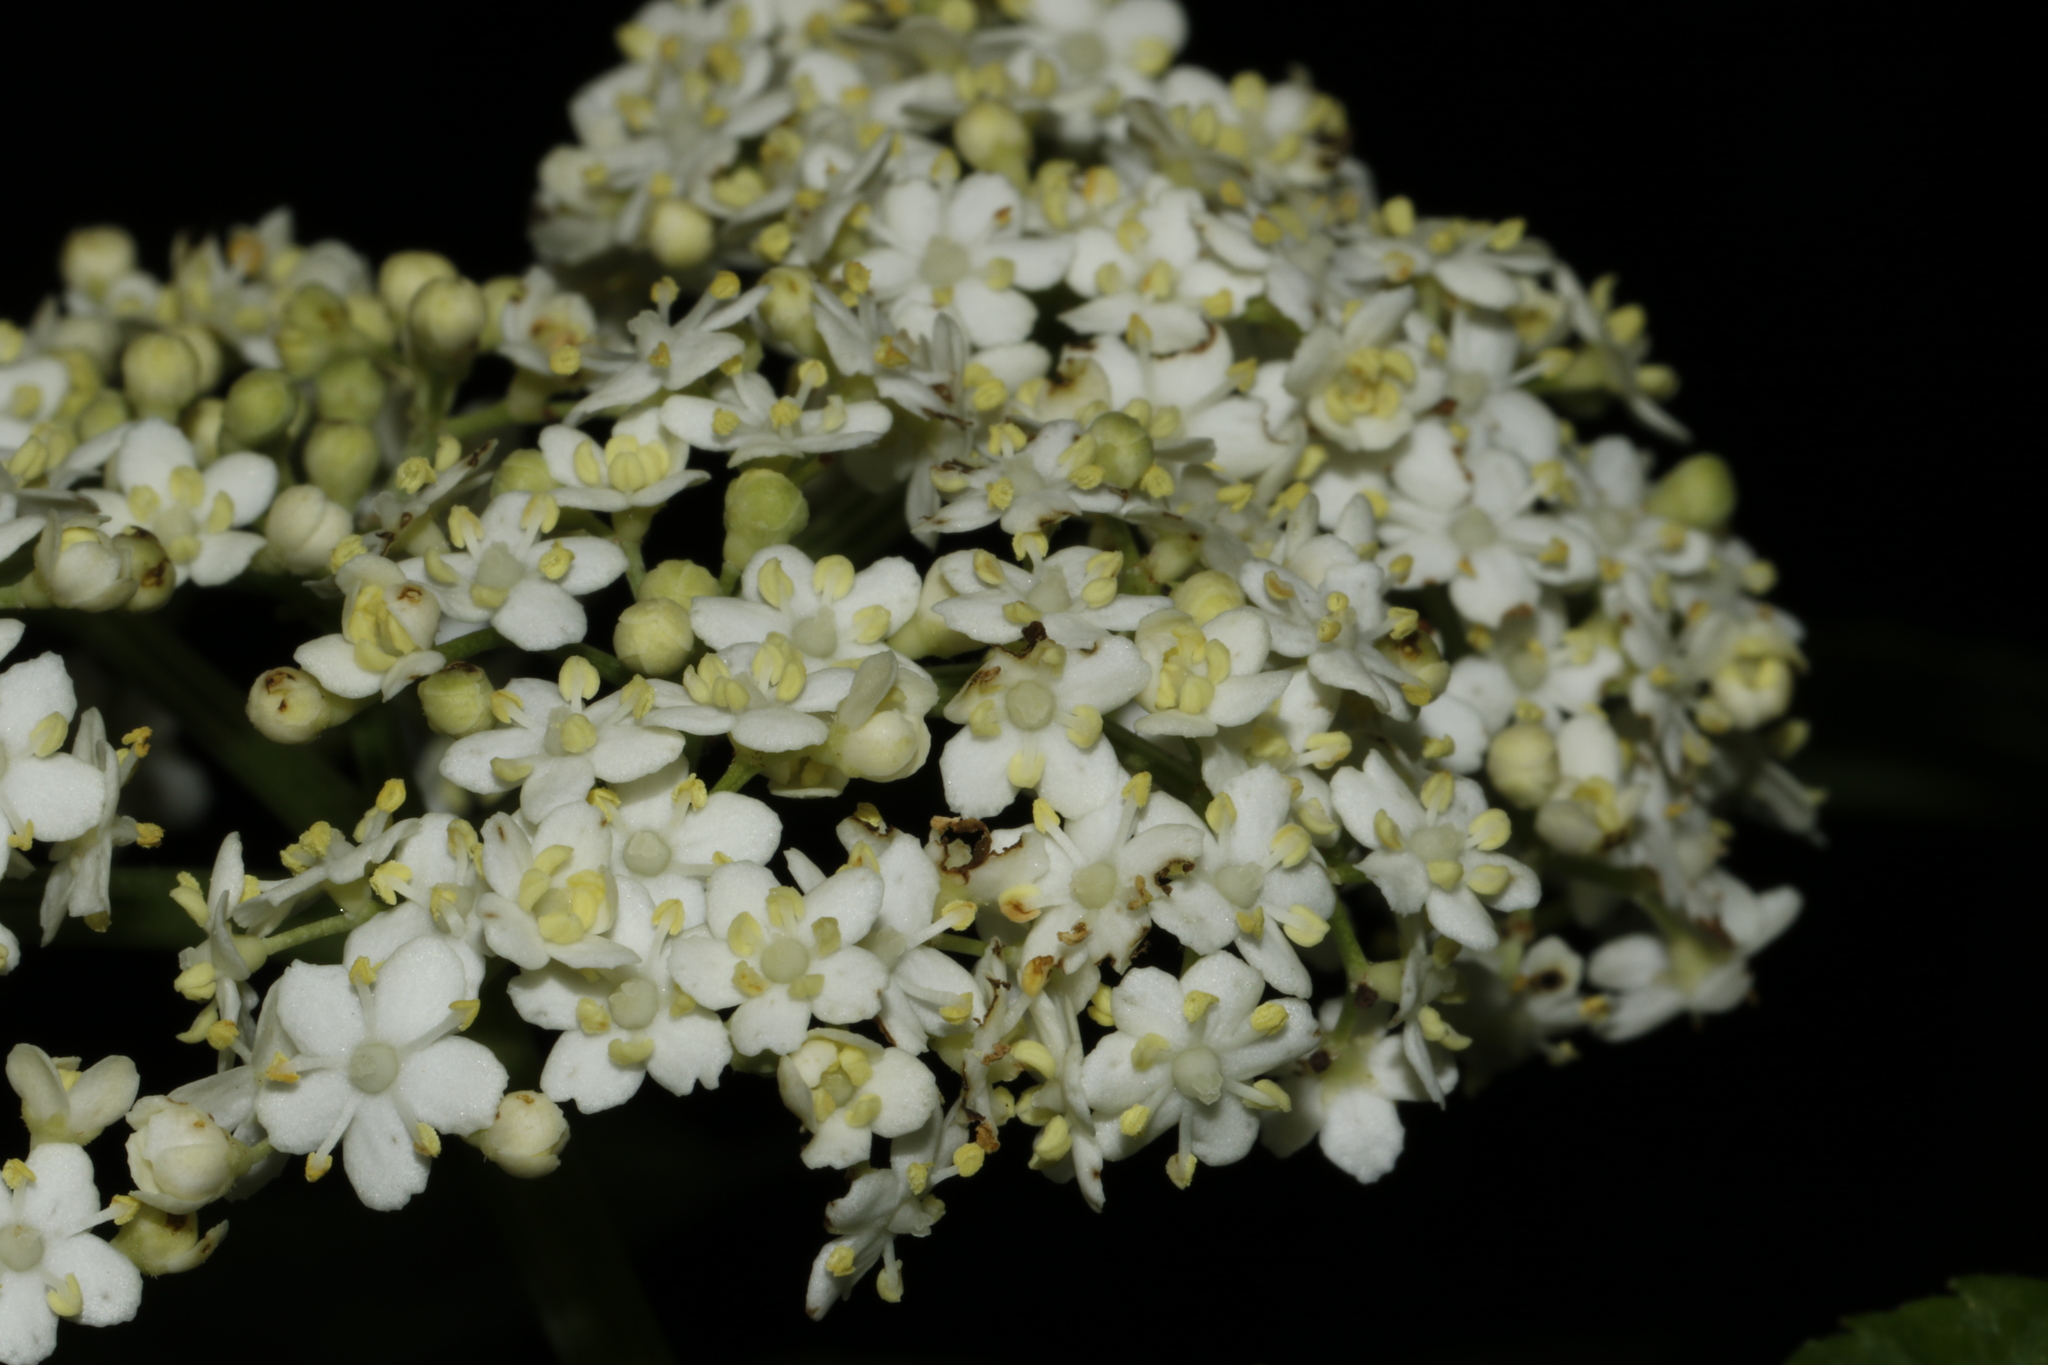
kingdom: Plantae
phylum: Tracheophyta
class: Magnoliopsida
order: Dipsacales
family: Viburnaceae
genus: Sambucus
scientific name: Sambucus nigra
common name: Elder
